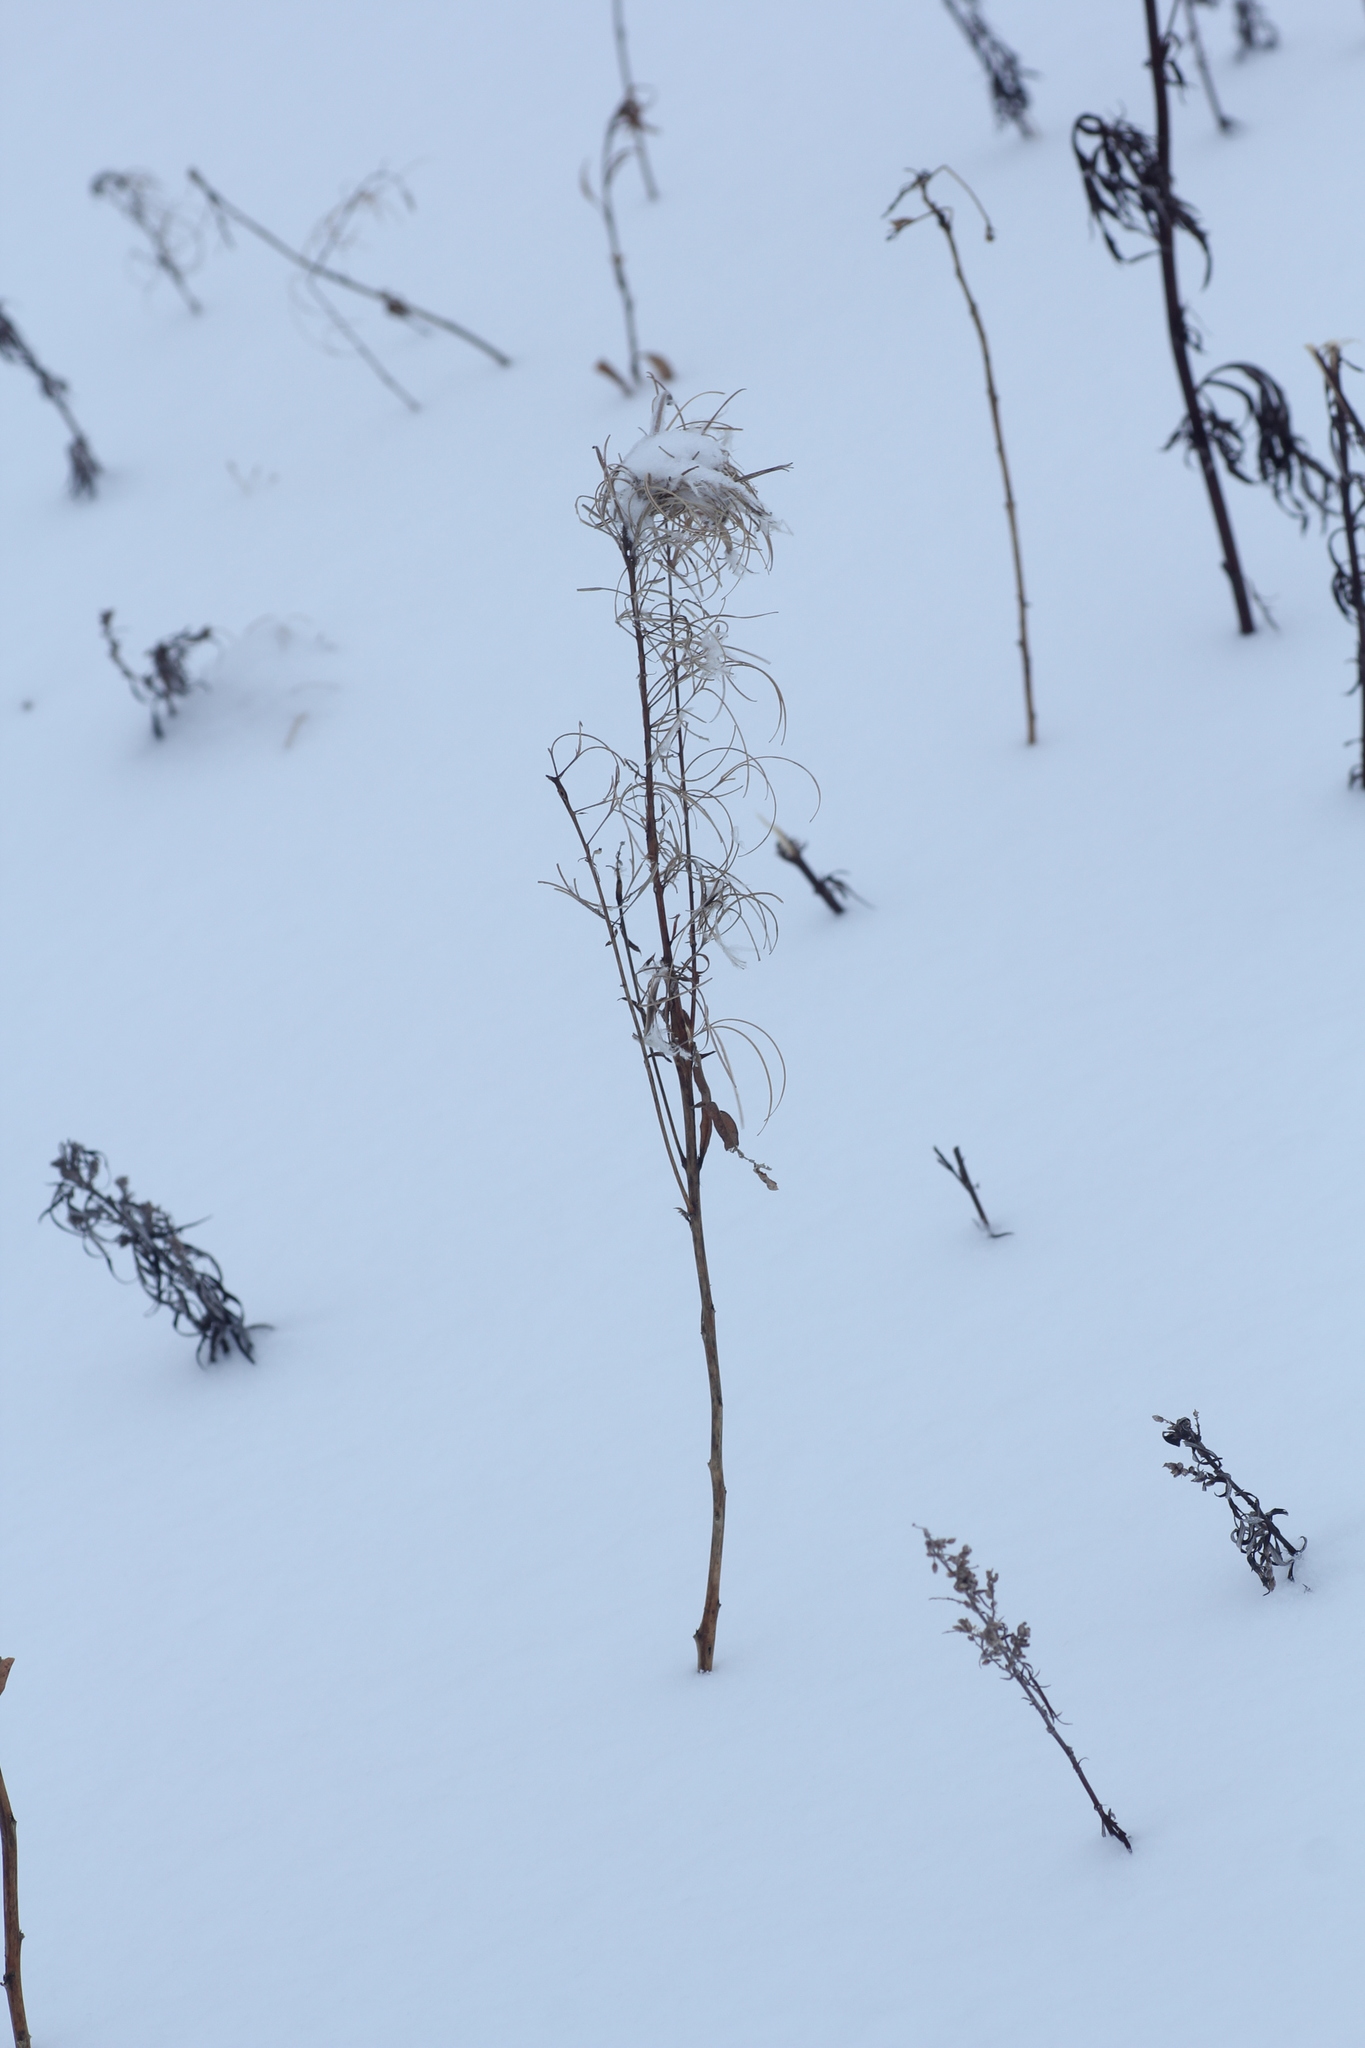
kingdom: Plantae
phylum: Tracheophyta
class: Magnoliopsida
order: Myrtales
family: Onagraceae
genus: Chamaenerion
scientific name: Chamaenerion angustifolium
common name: Fireweed
